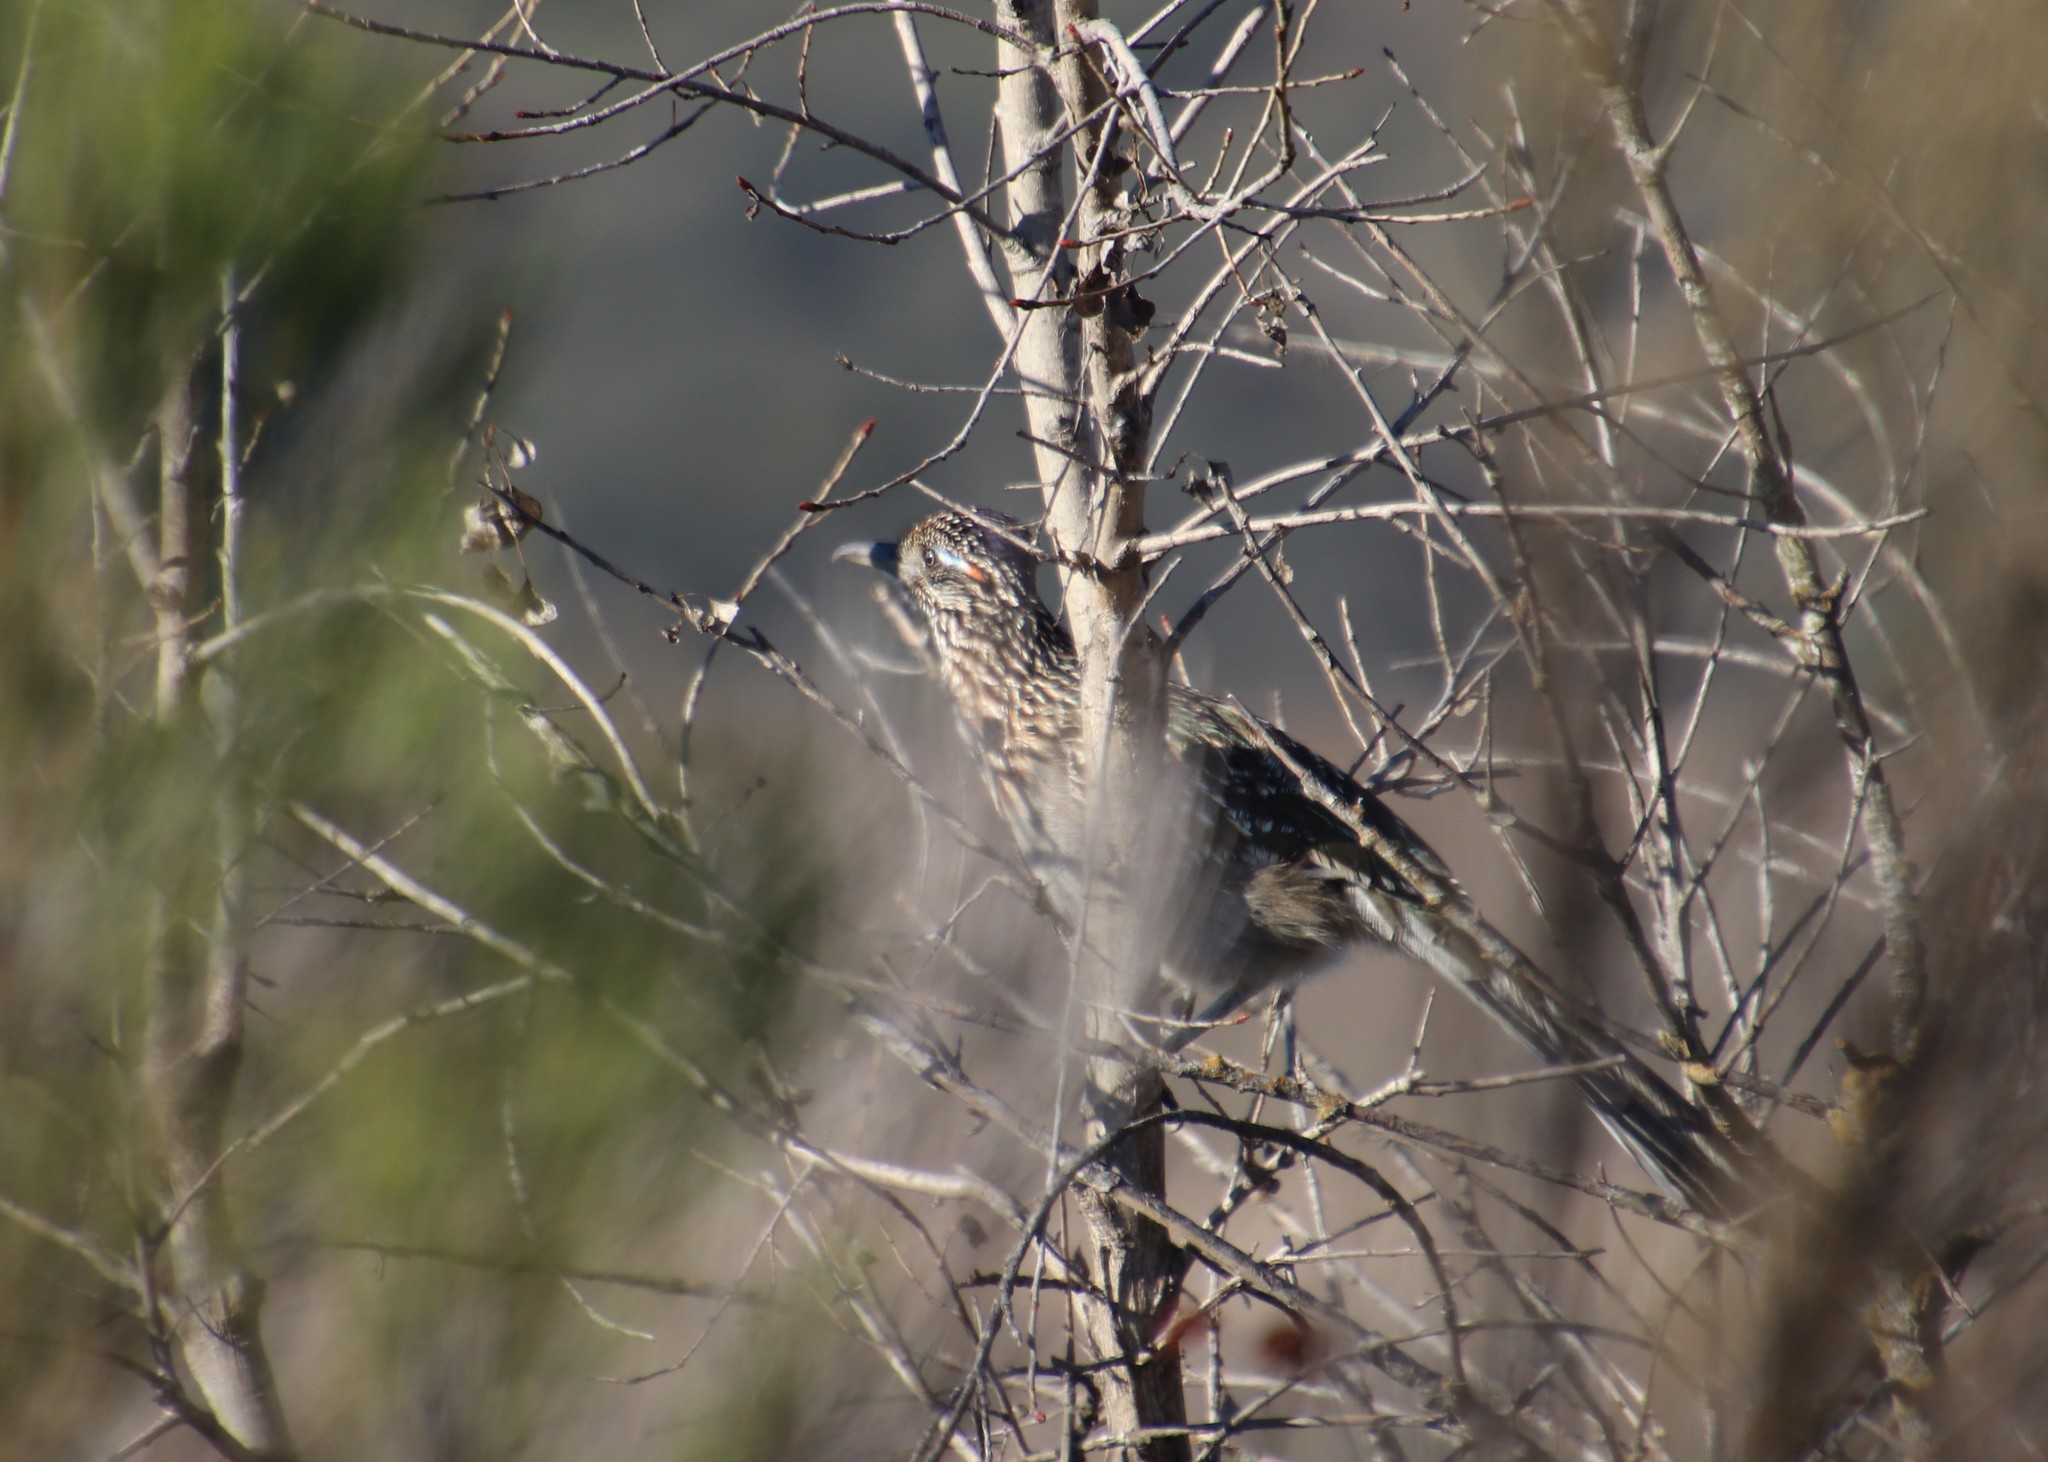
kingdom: Animalia
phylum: Chordata
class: Aves
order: Cuculiformes
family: Cuculidae
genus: Geococcyx
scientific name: Geococcyx californianus
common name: Greater roadrunner
